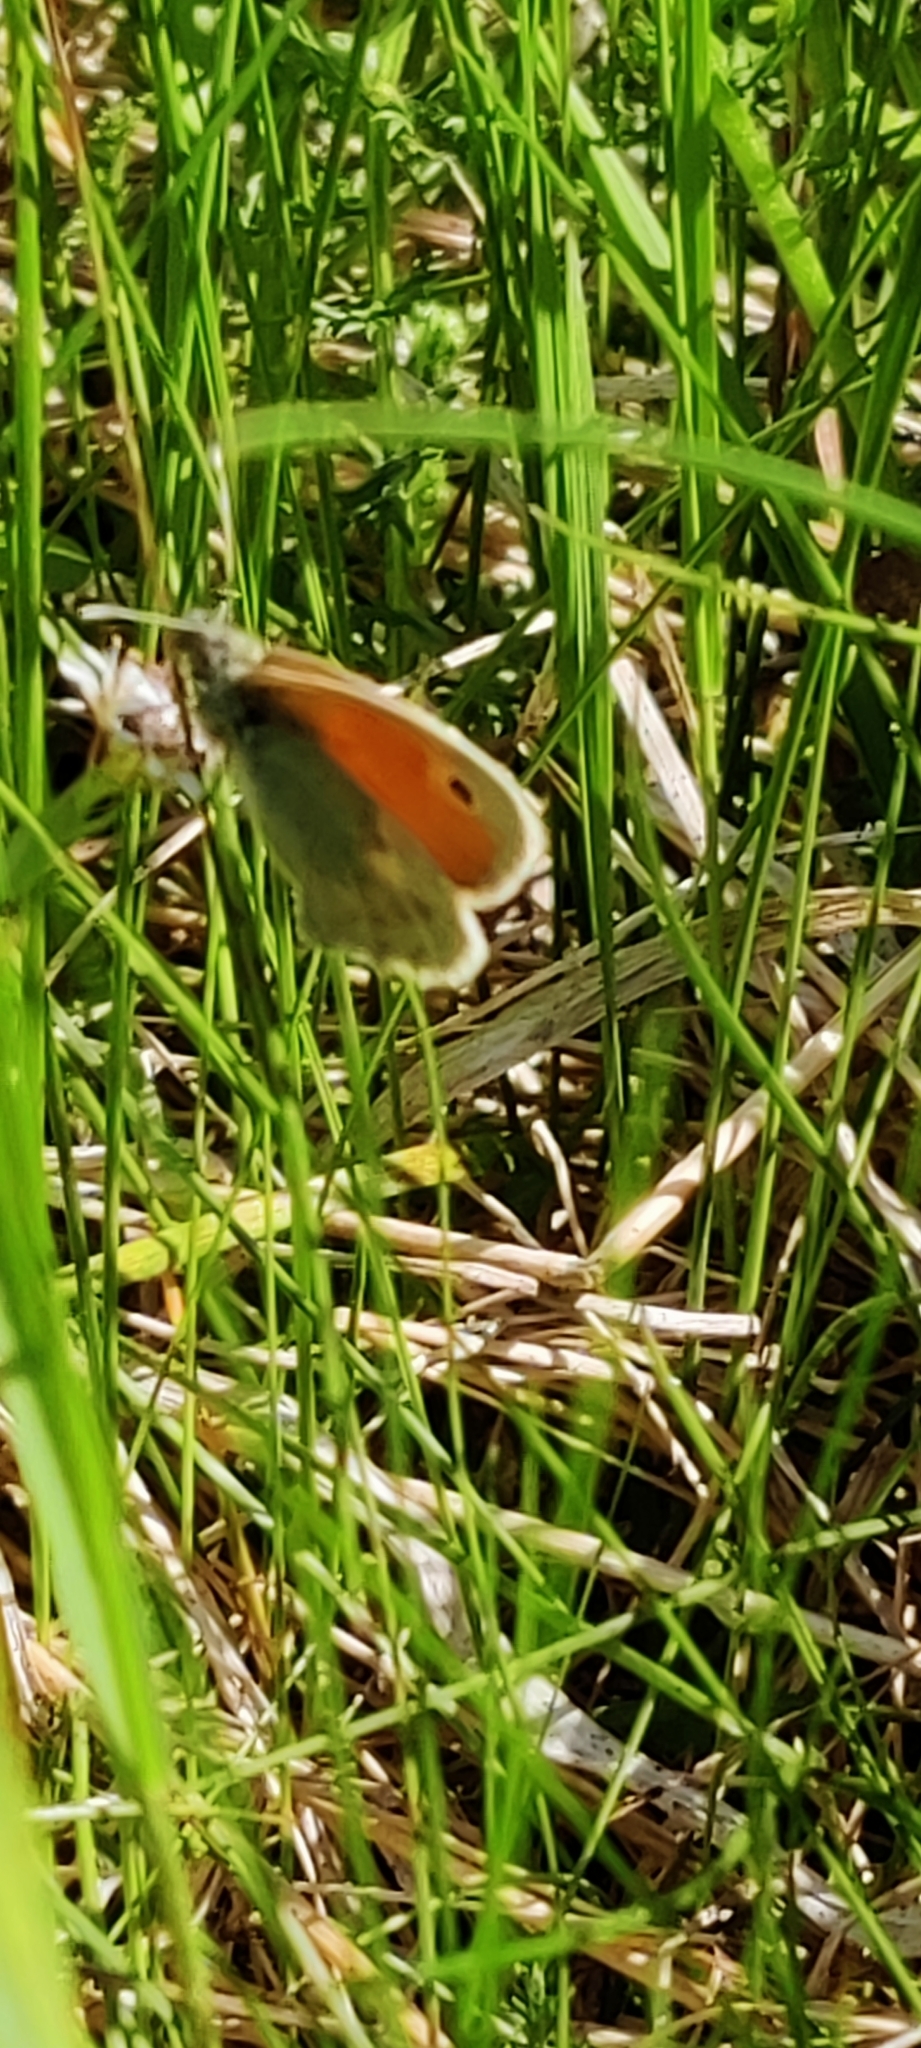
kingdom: Animalia
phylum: Arthropoda
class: Insecta
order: Lepidoptera
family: Nymphalidae
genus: Coenonympha
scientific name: Coenonympha pamphilus
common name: Small heath
